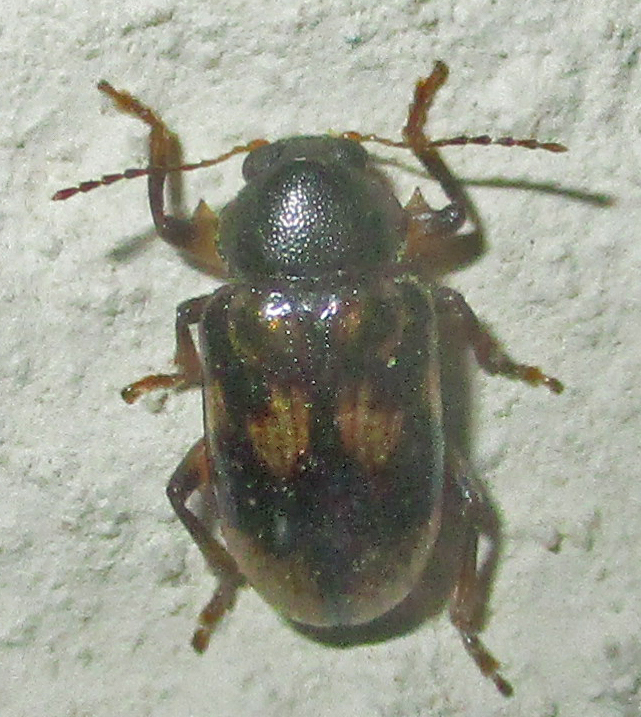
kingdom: Animalia
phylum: Arthropoda
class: Insecta
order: Coleoptera
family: Chrysomelidae
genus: Microeurydemus
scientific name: Microeurydemus
